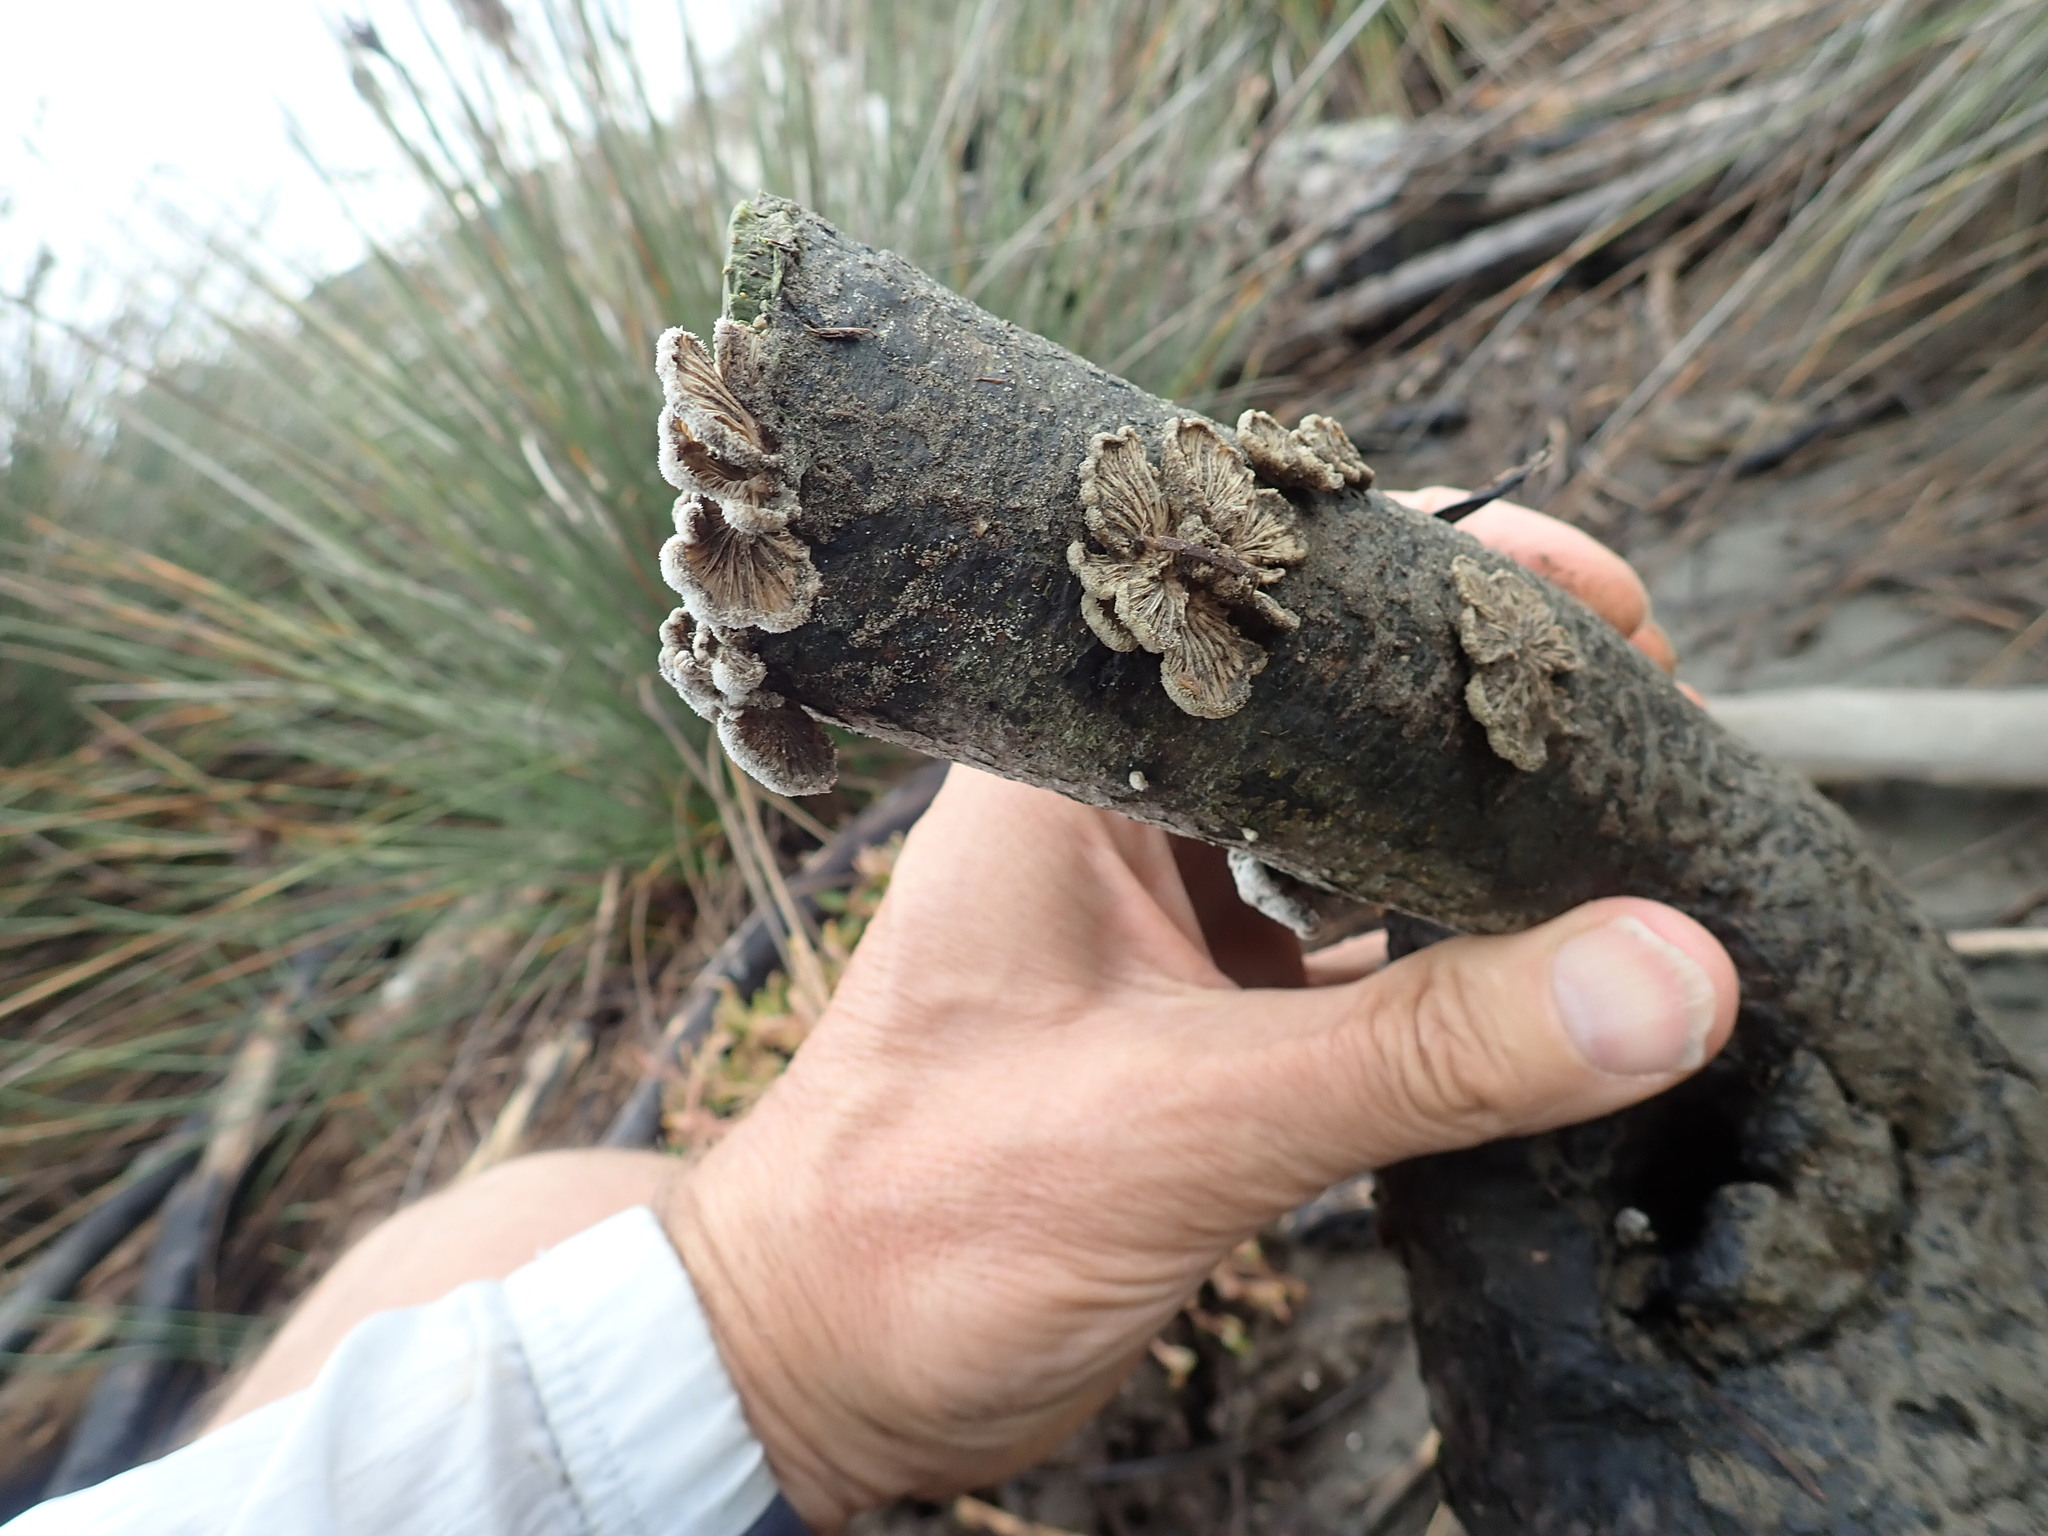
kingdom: Fungi
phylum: Basidiomycota
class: Agaricomycetes
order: Agaricales
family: Schizophyllaceae
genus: Schizophyllum
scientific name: Schizophyllum commune
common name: Common porecrust
